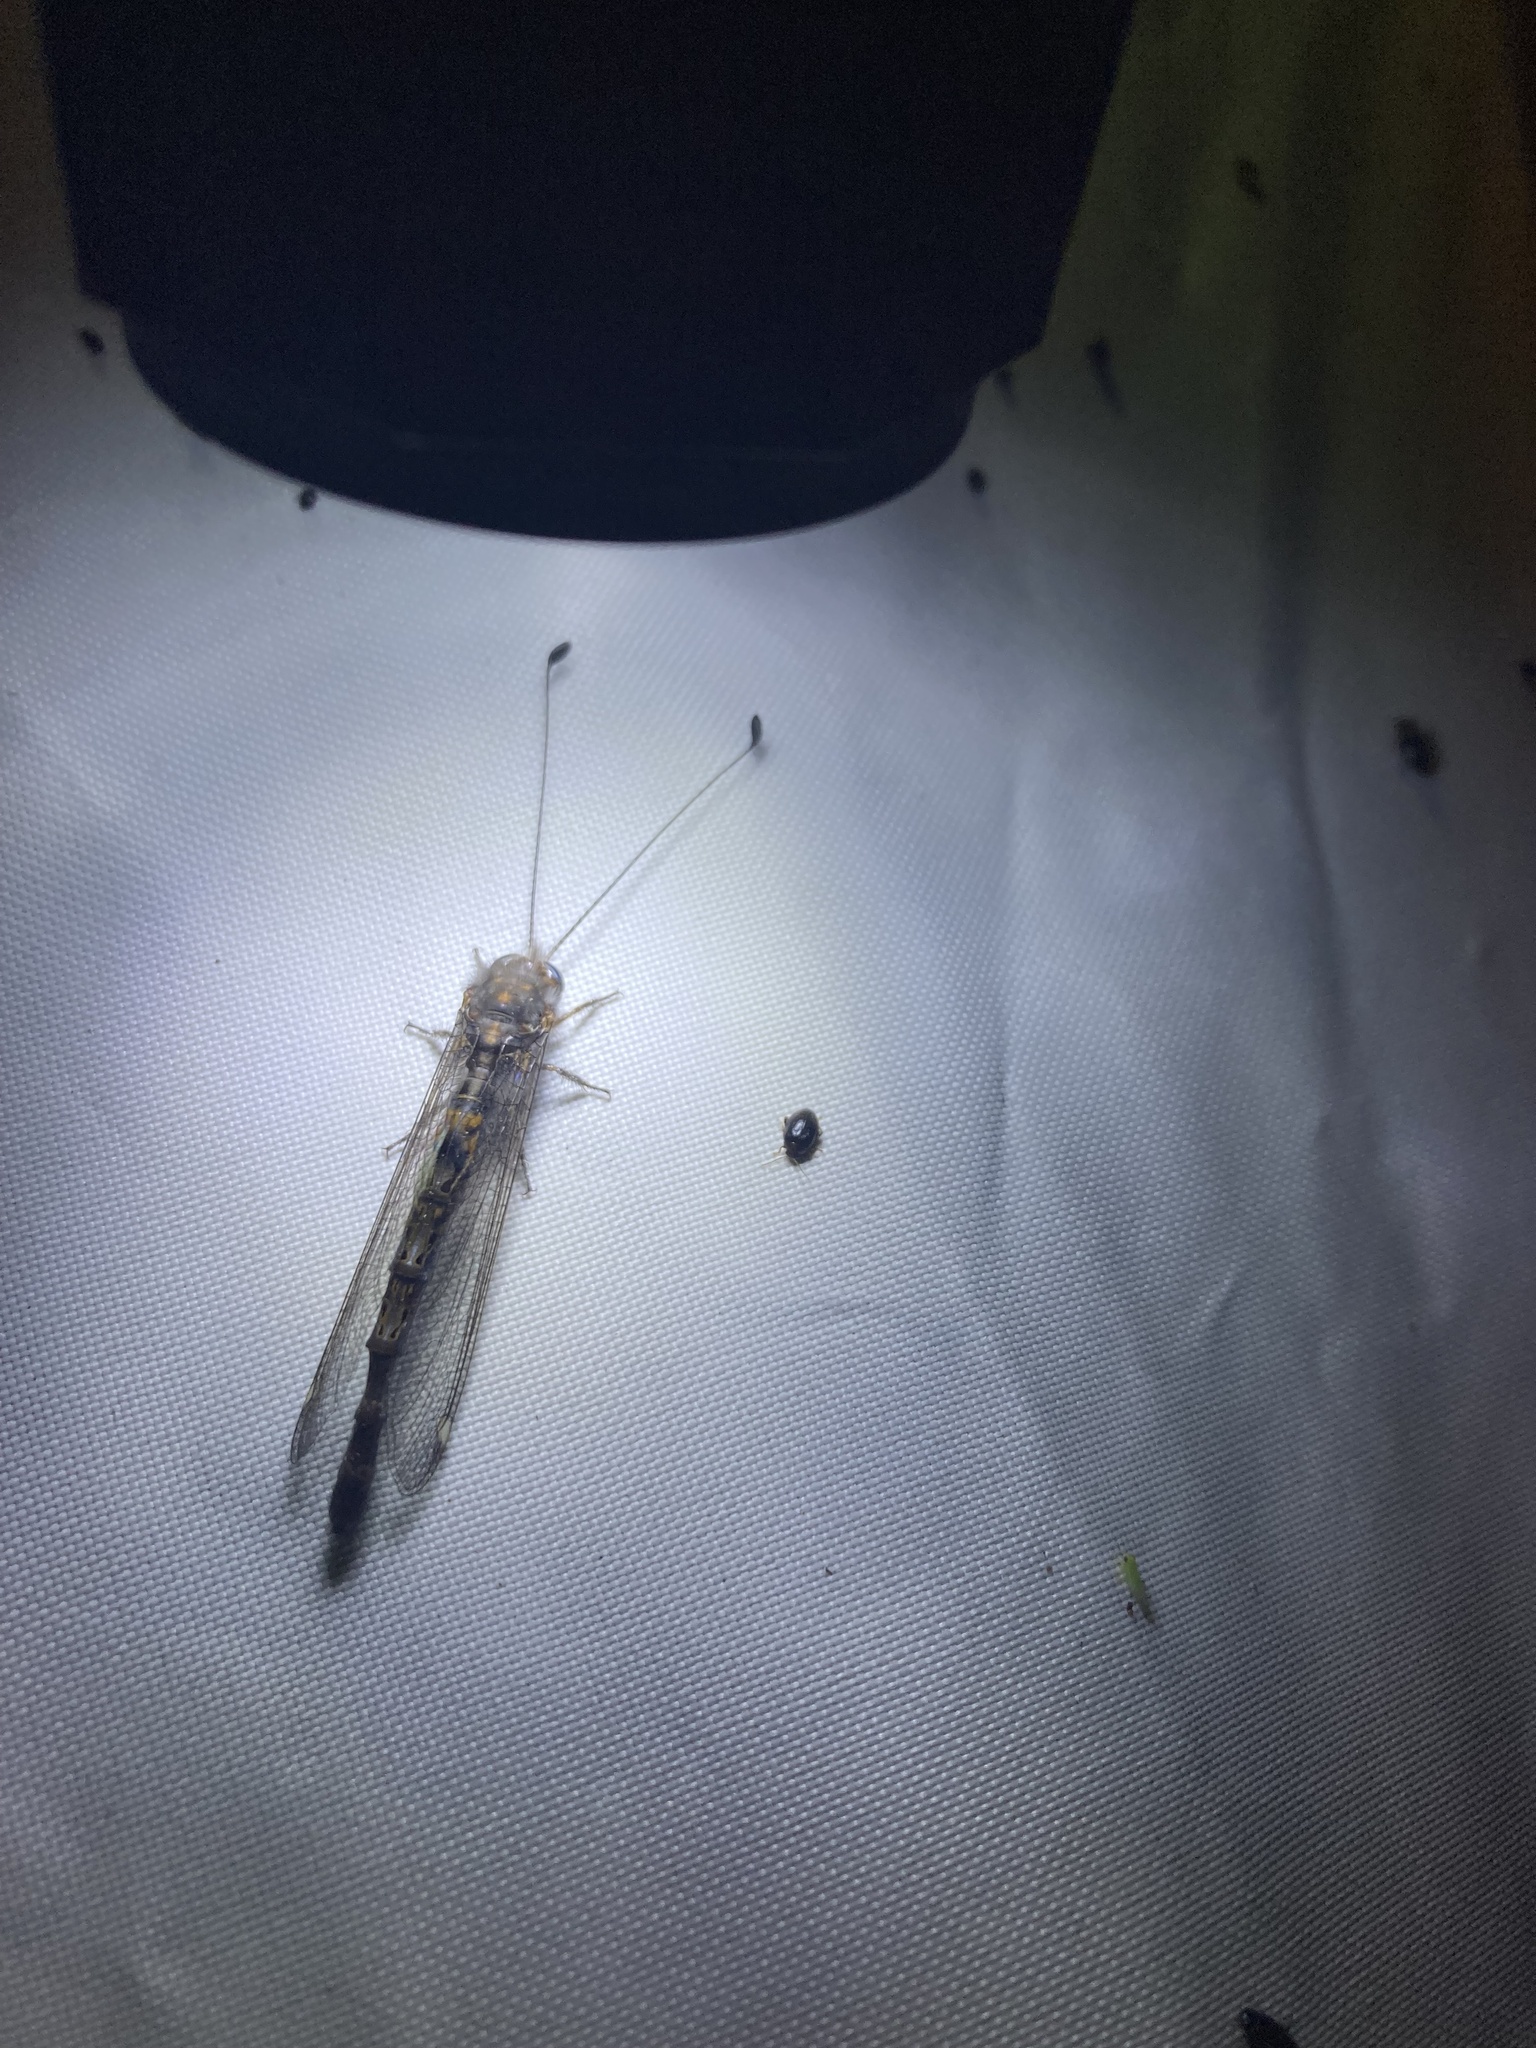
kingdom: Animalia
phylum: Arthropoda
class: Insecta
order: Neuroptera
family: Ascalaphidae
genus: Ululodes
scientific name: Ululodes quadripunctatus
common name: Four-spotted owlfly
